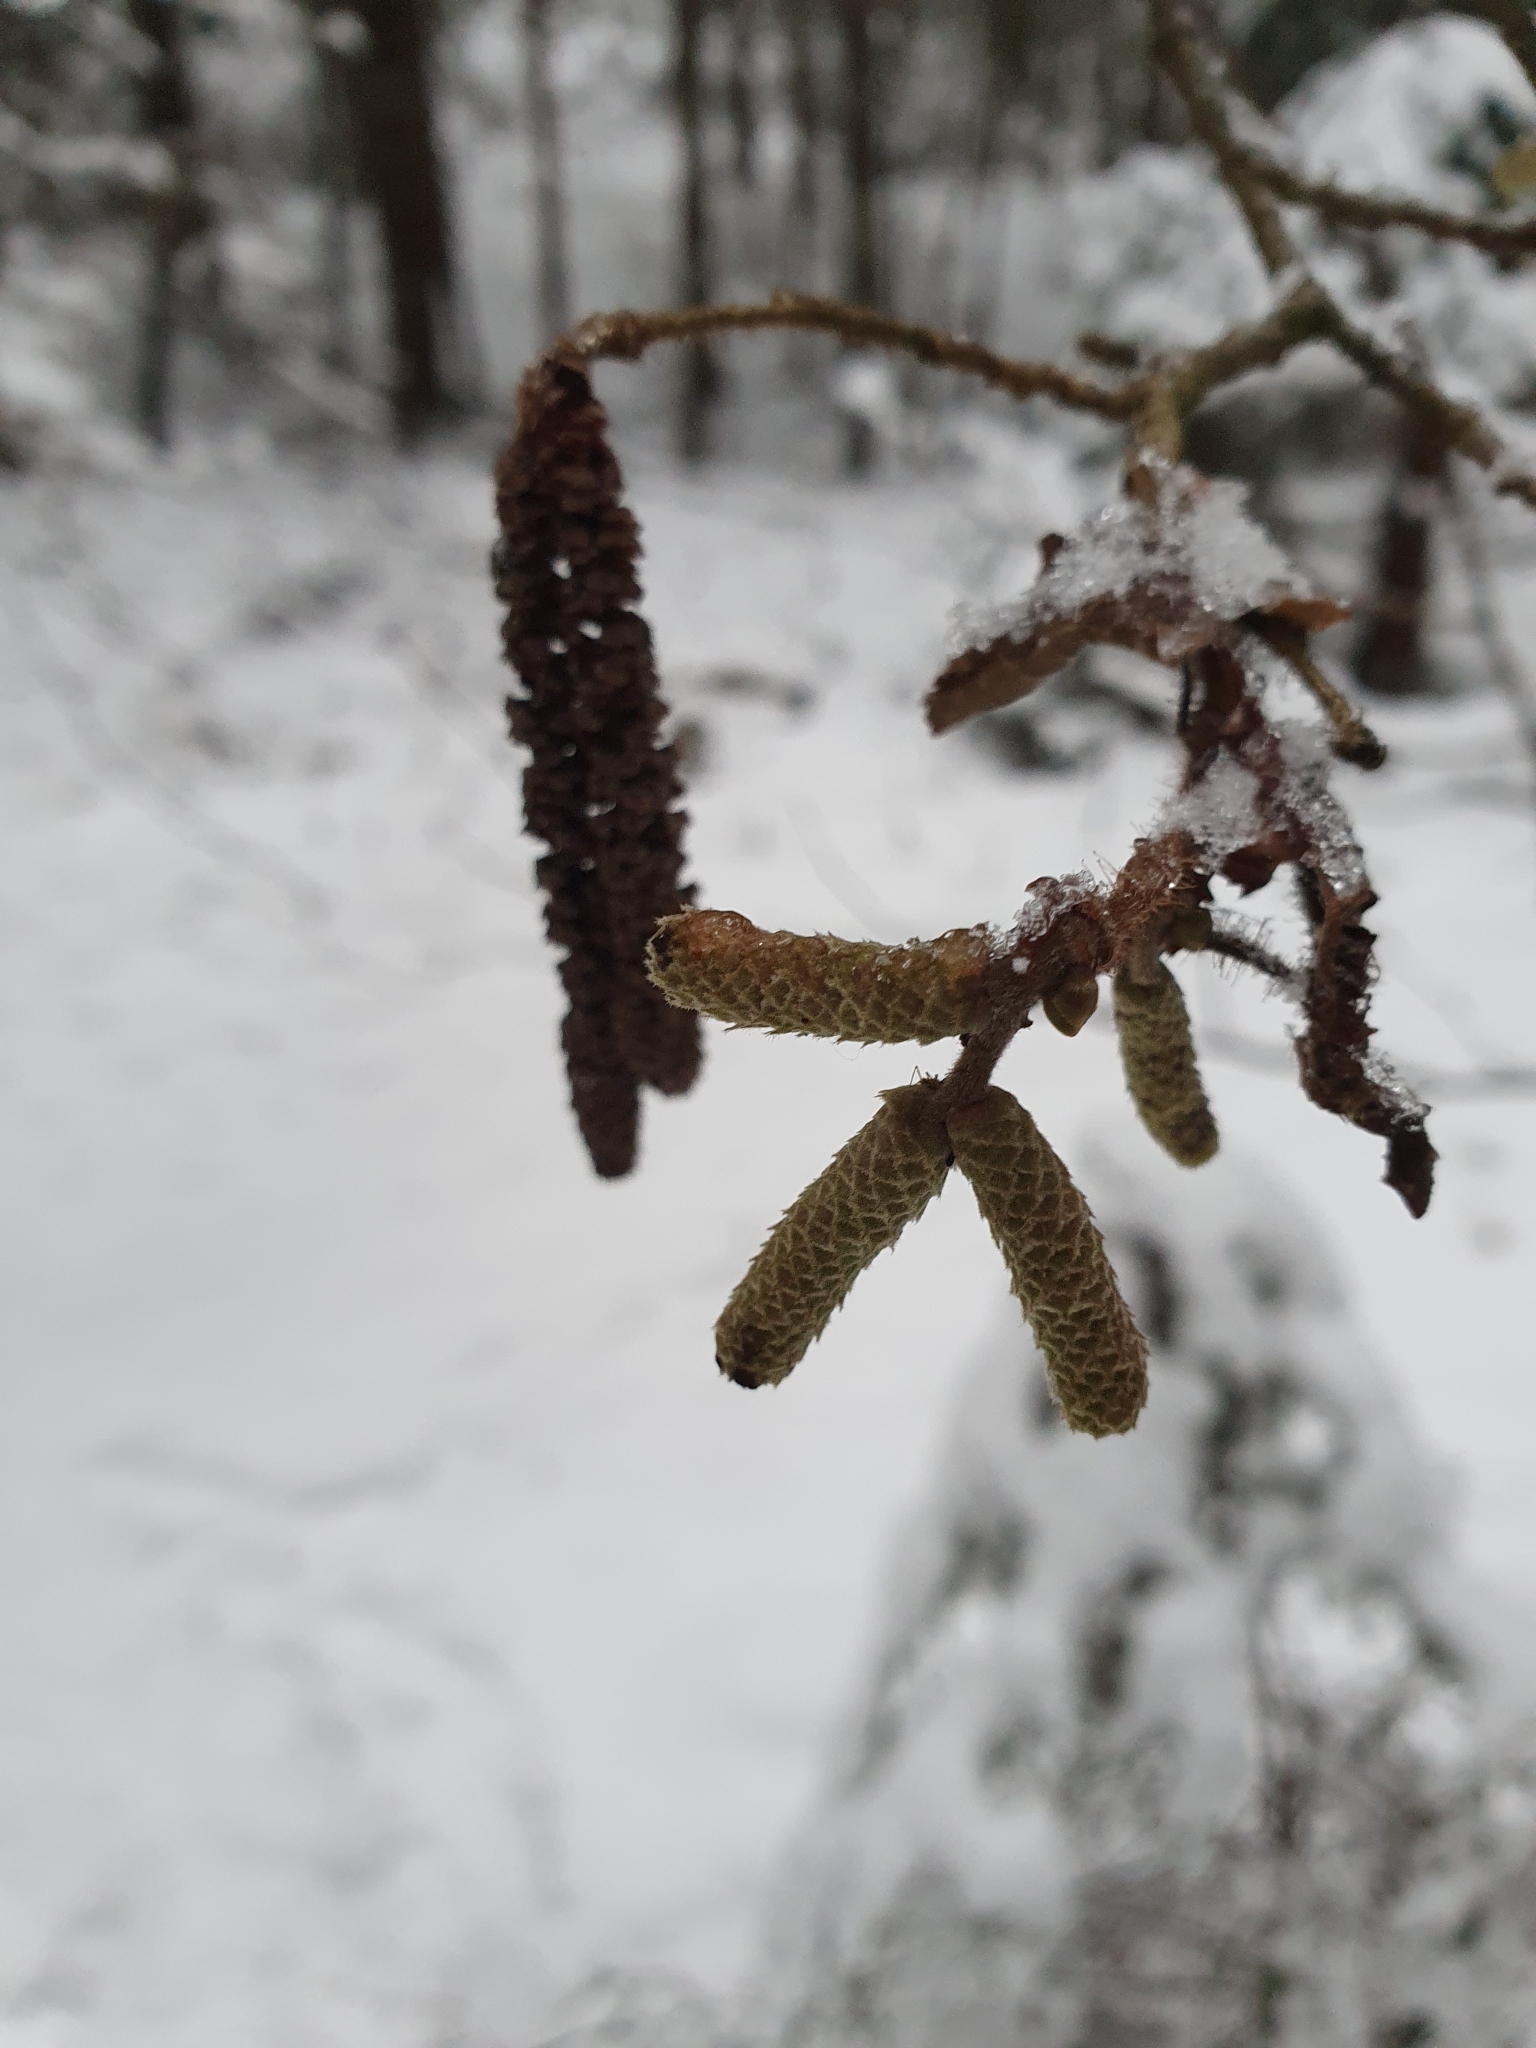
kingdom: Plantae
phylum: Tracheophyta
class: Magnoliopsida
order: Fagales
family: Betulaceae
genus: Corylus
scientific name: Corylus avellana
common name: European hazel
